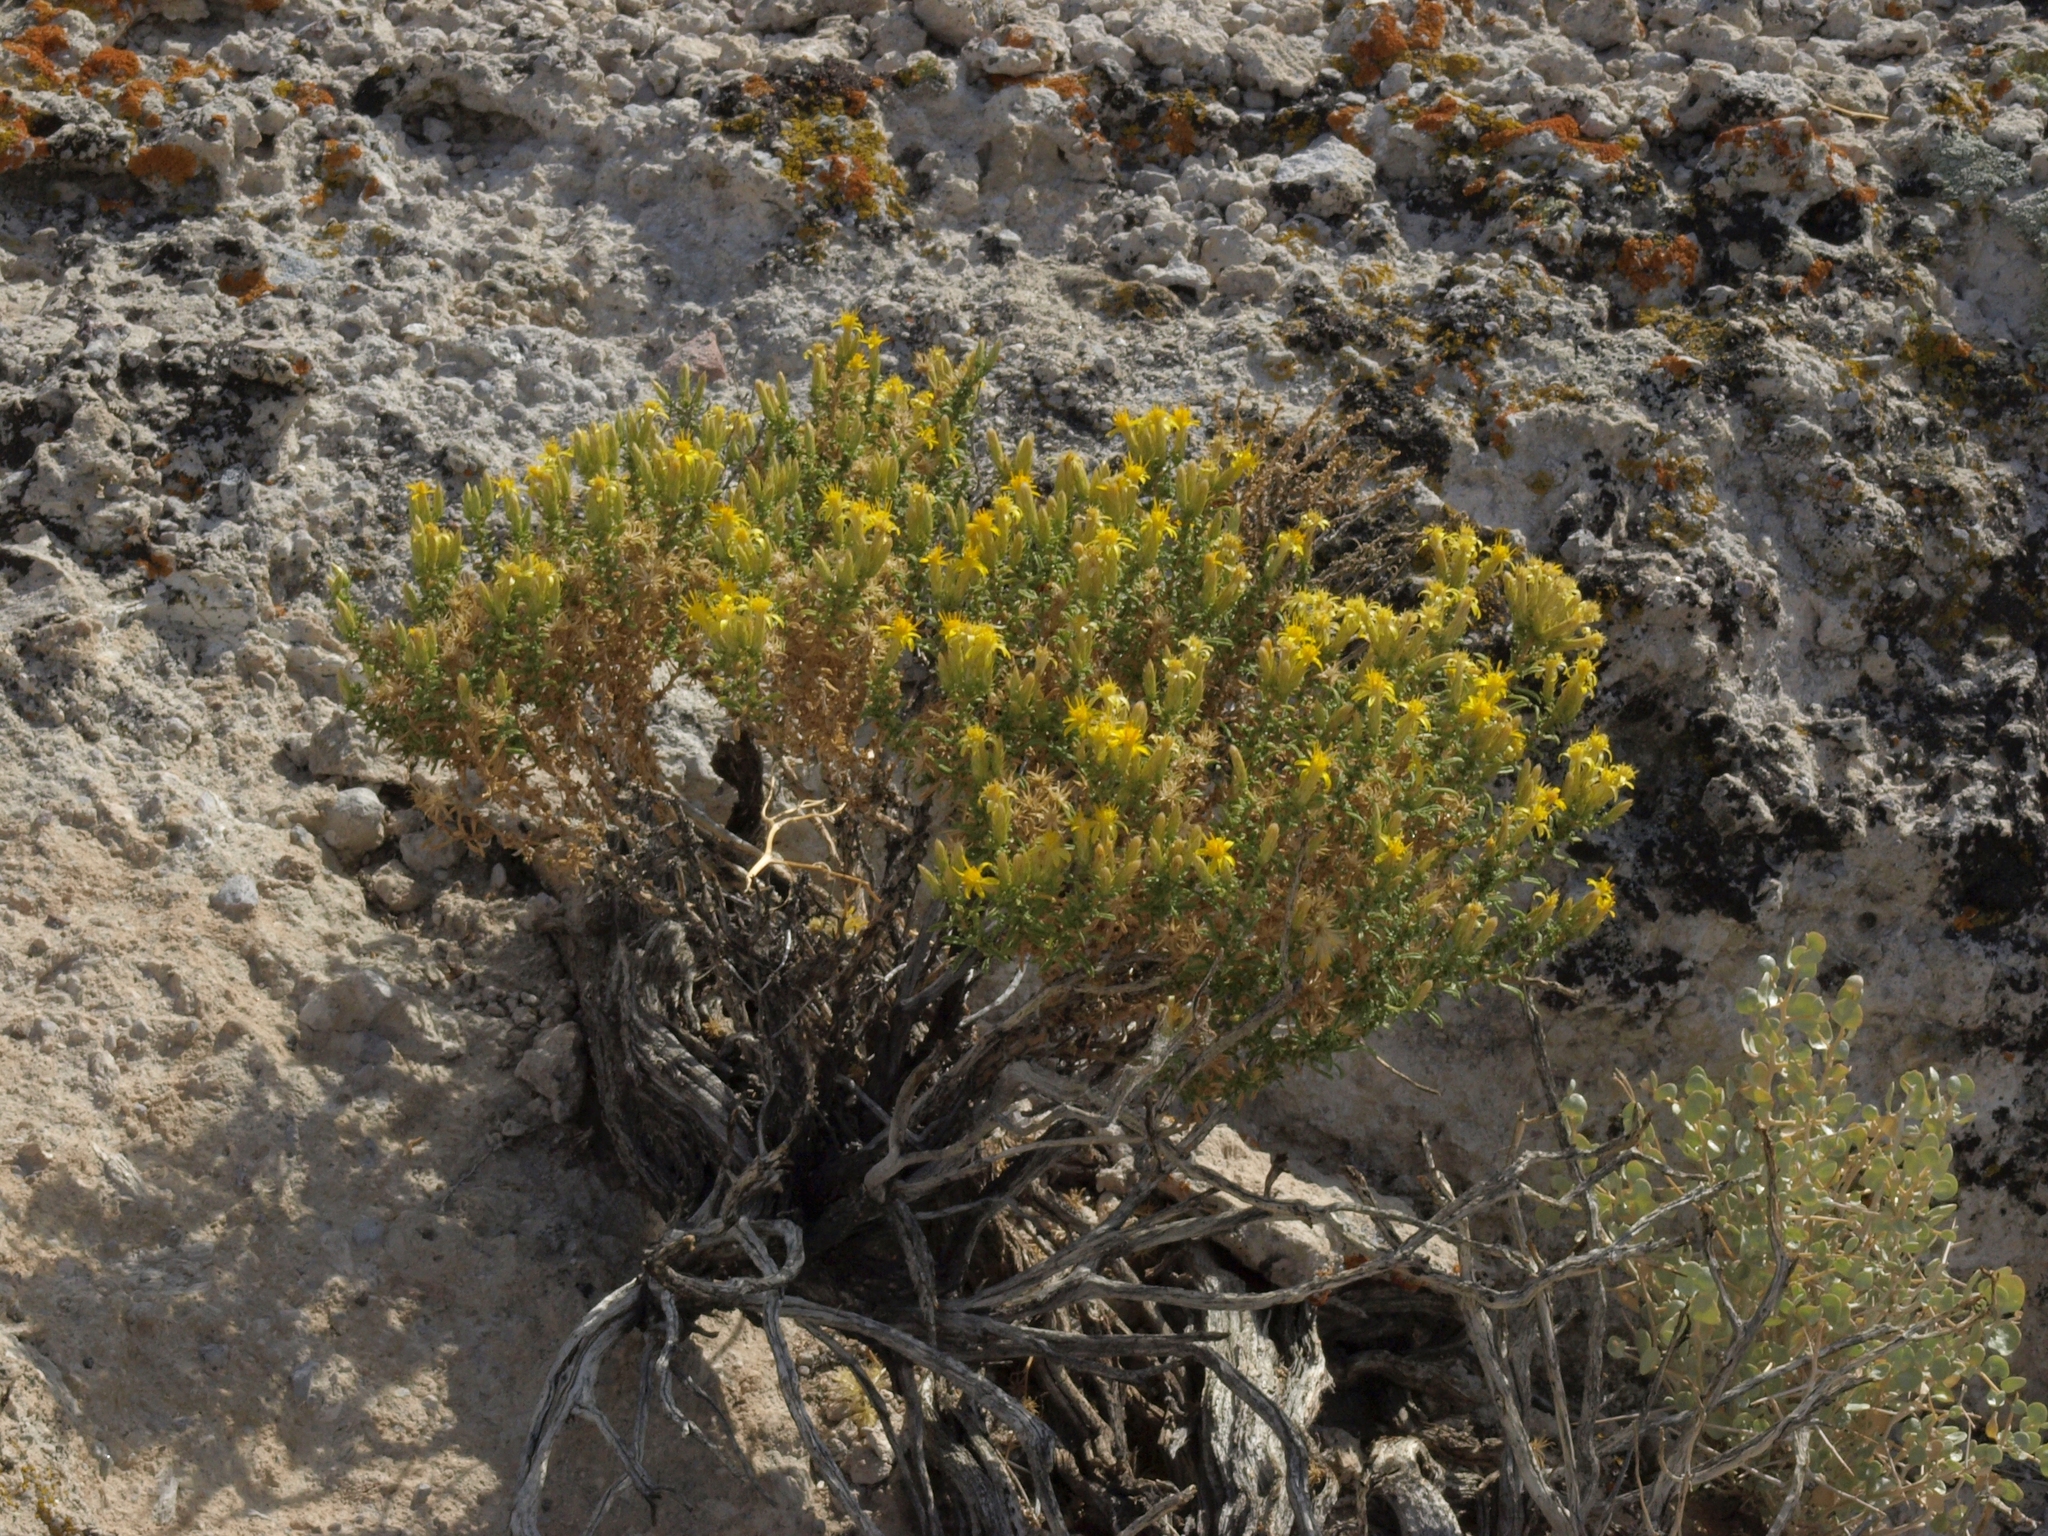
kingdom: Plantae
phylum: Tracheophyta
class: Magnoliopsida
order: Asterales
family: Asteraceae
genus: Ericameria
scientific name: Ericameria nana
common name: Dwarf goldenbush
